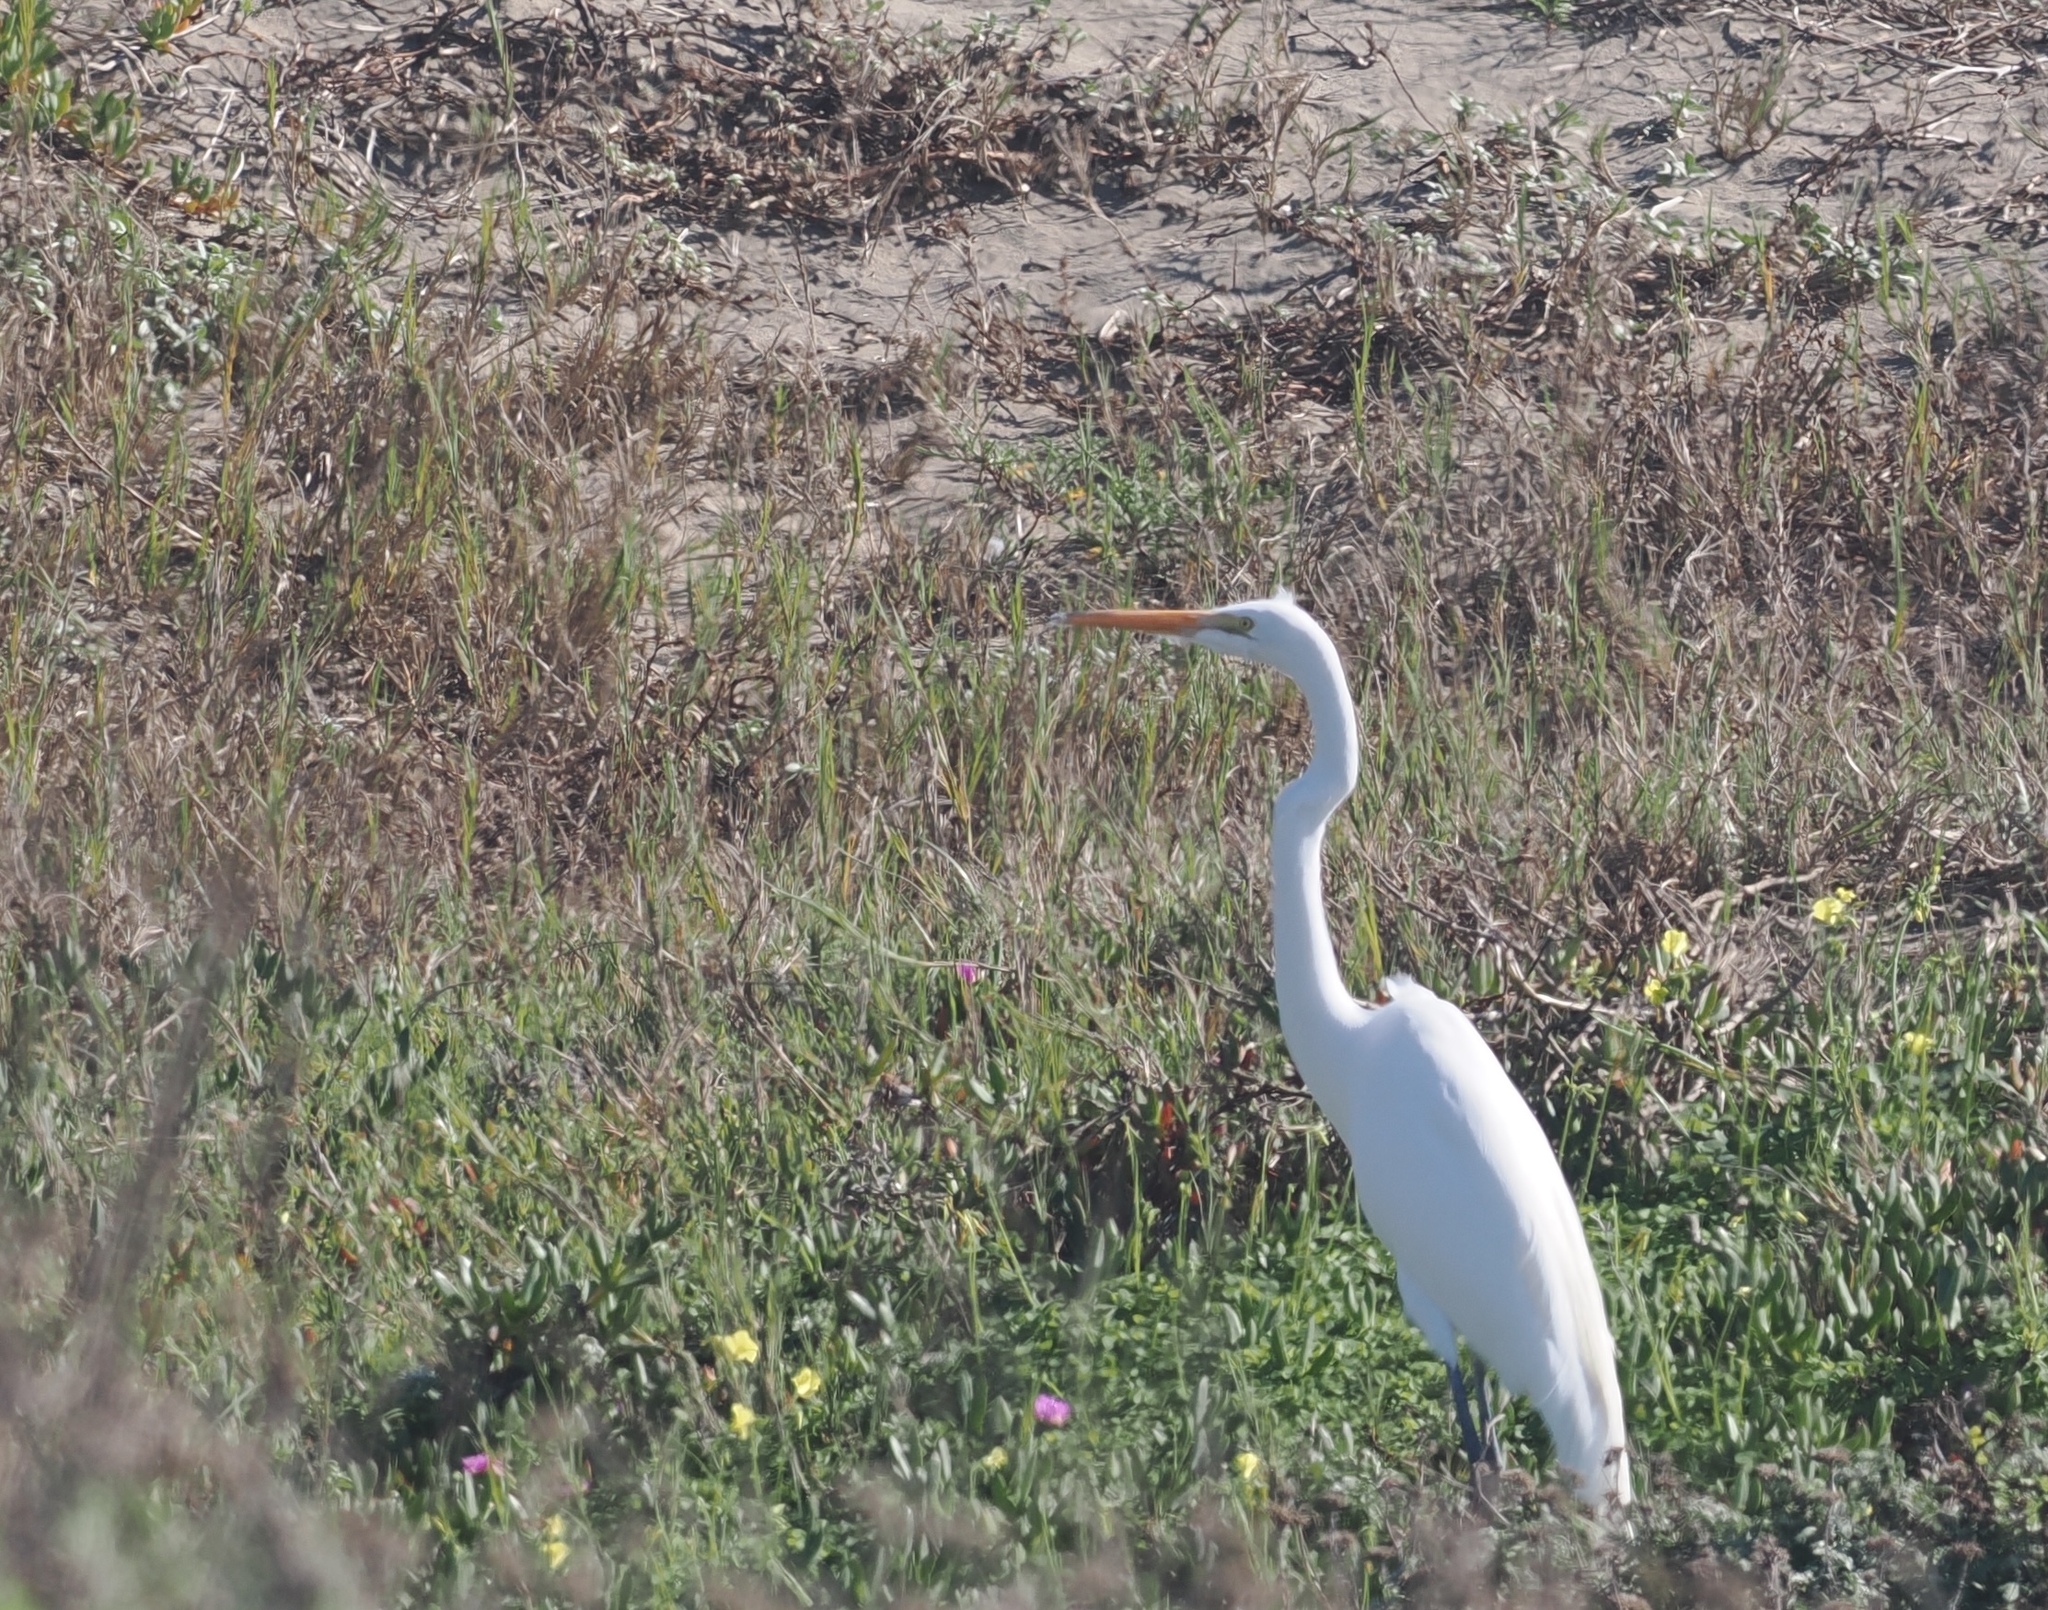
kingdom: Animalia
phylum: Chordata
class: Aves
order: Pelecaniformes
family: Ardeidae
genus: Ardea
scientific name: Ardea alba
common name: Great egret
